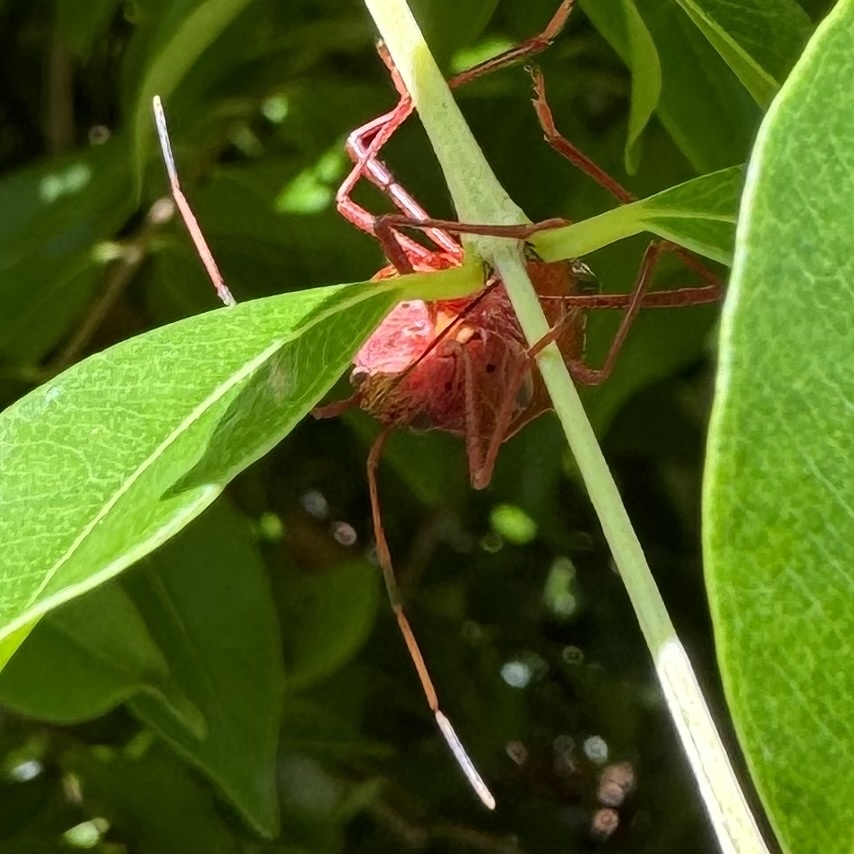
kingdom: Animalia
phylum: Arthropoda
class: Insecta
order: Hemiptera
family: Pentatomidae
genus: Poecilometis
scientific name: Poecilometis
